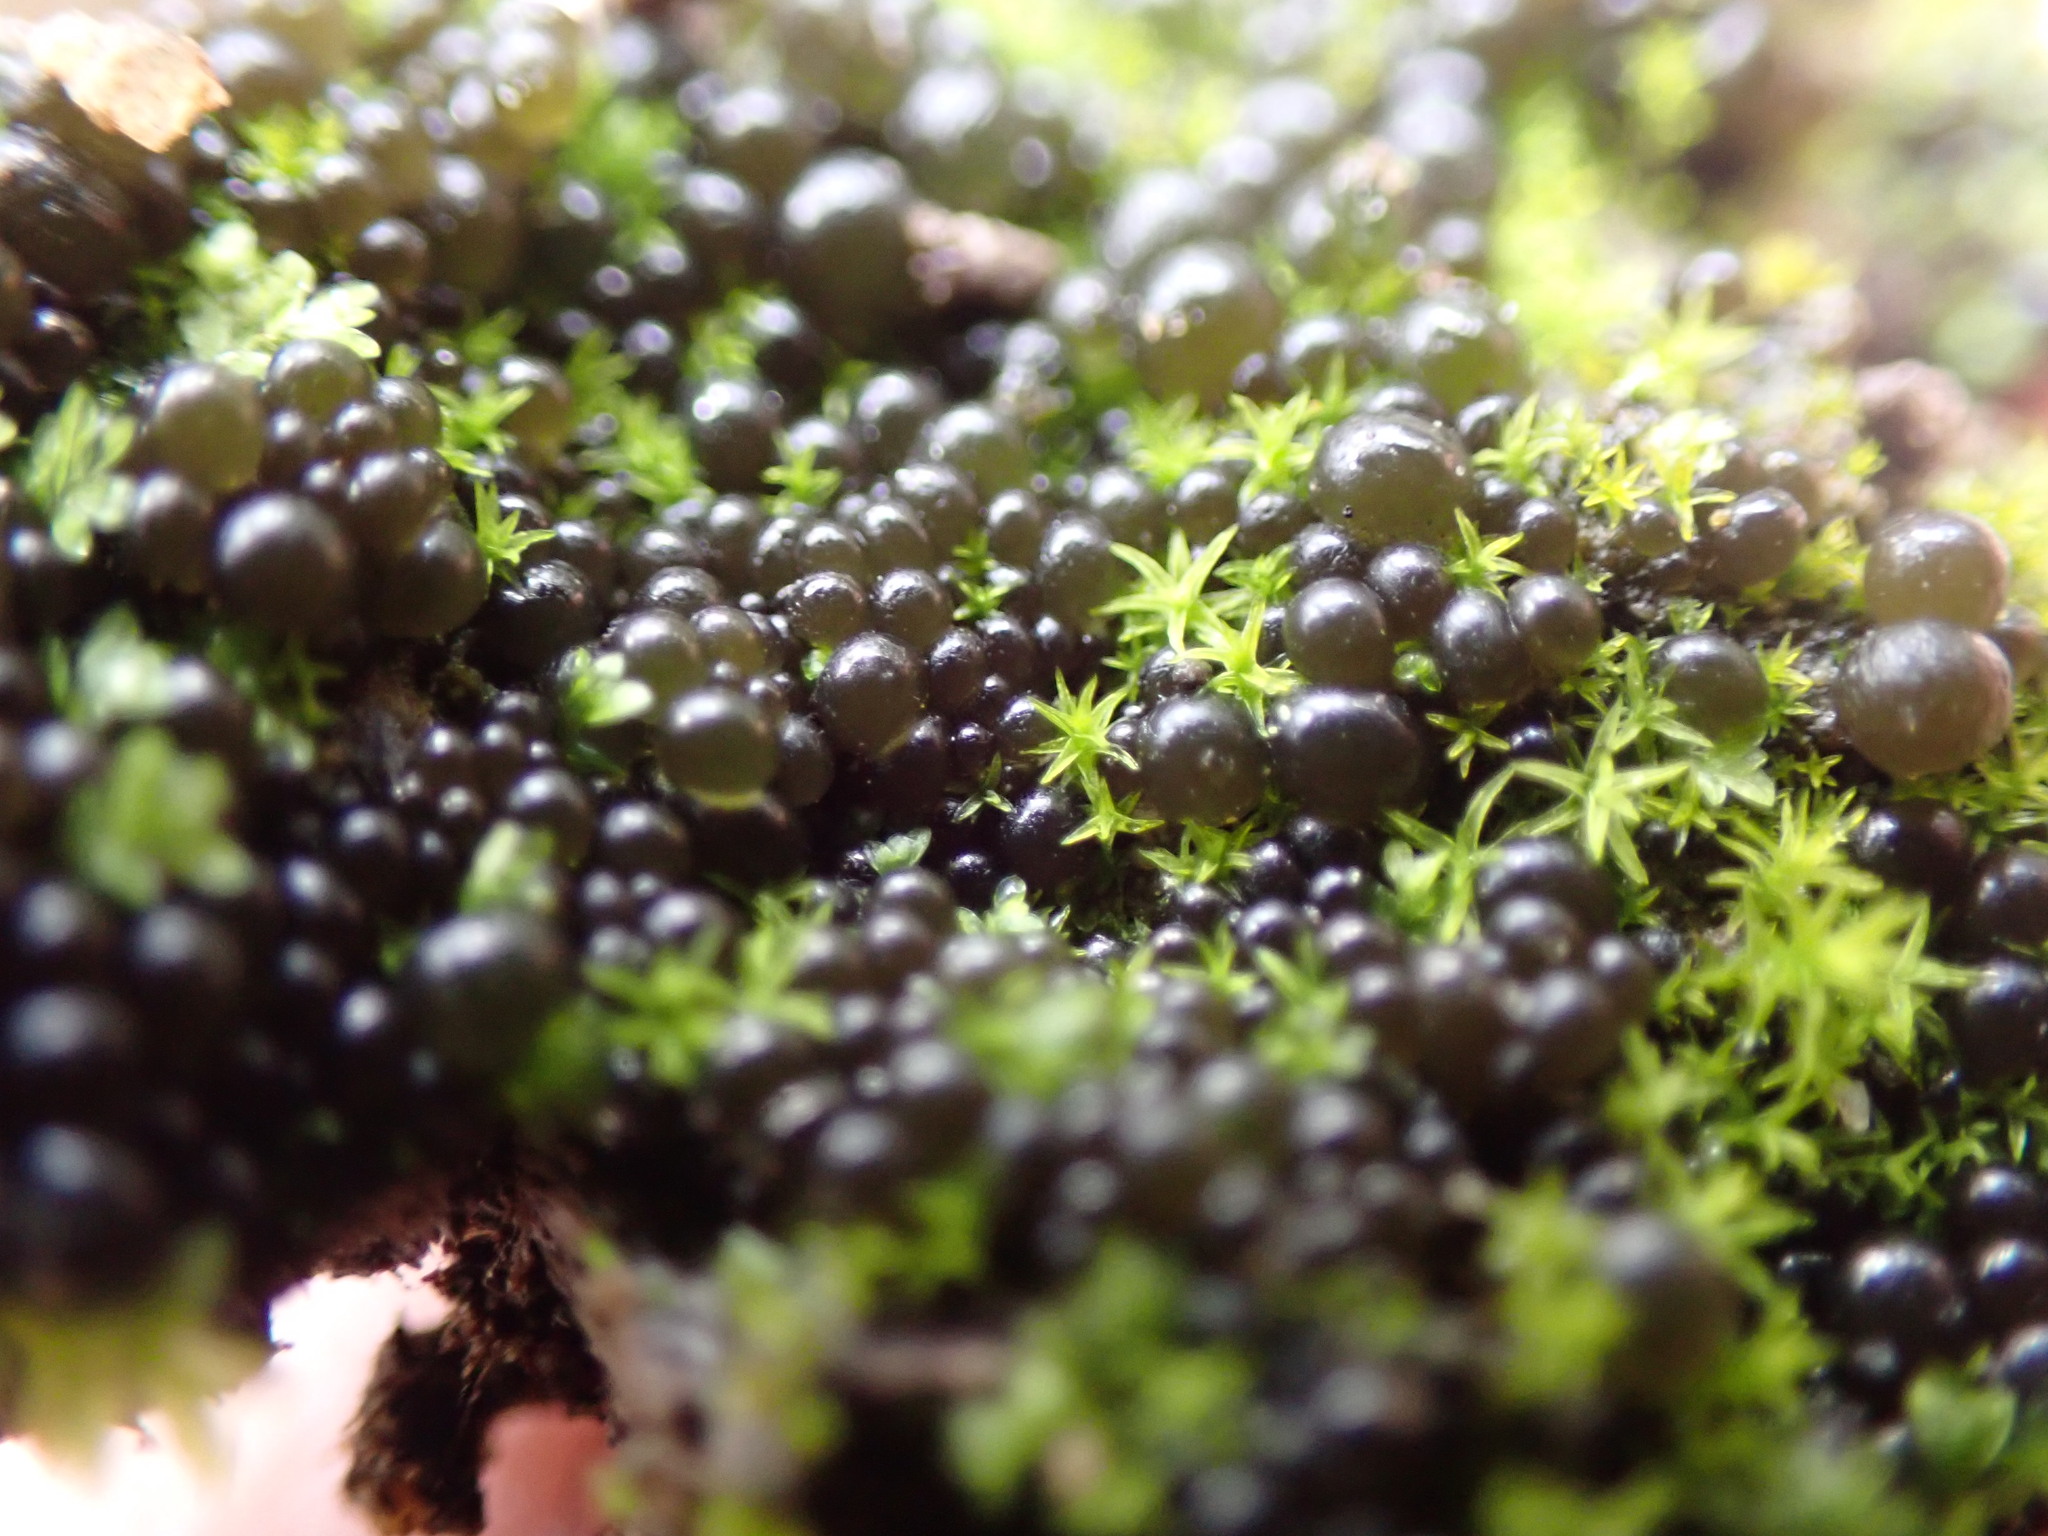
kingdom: Bacteria
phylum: Cyanobacteria
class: Cyanobacteriia
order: Cyanobacteriales
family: Nostocaceae
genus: Nostoc
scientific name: Nostoc
